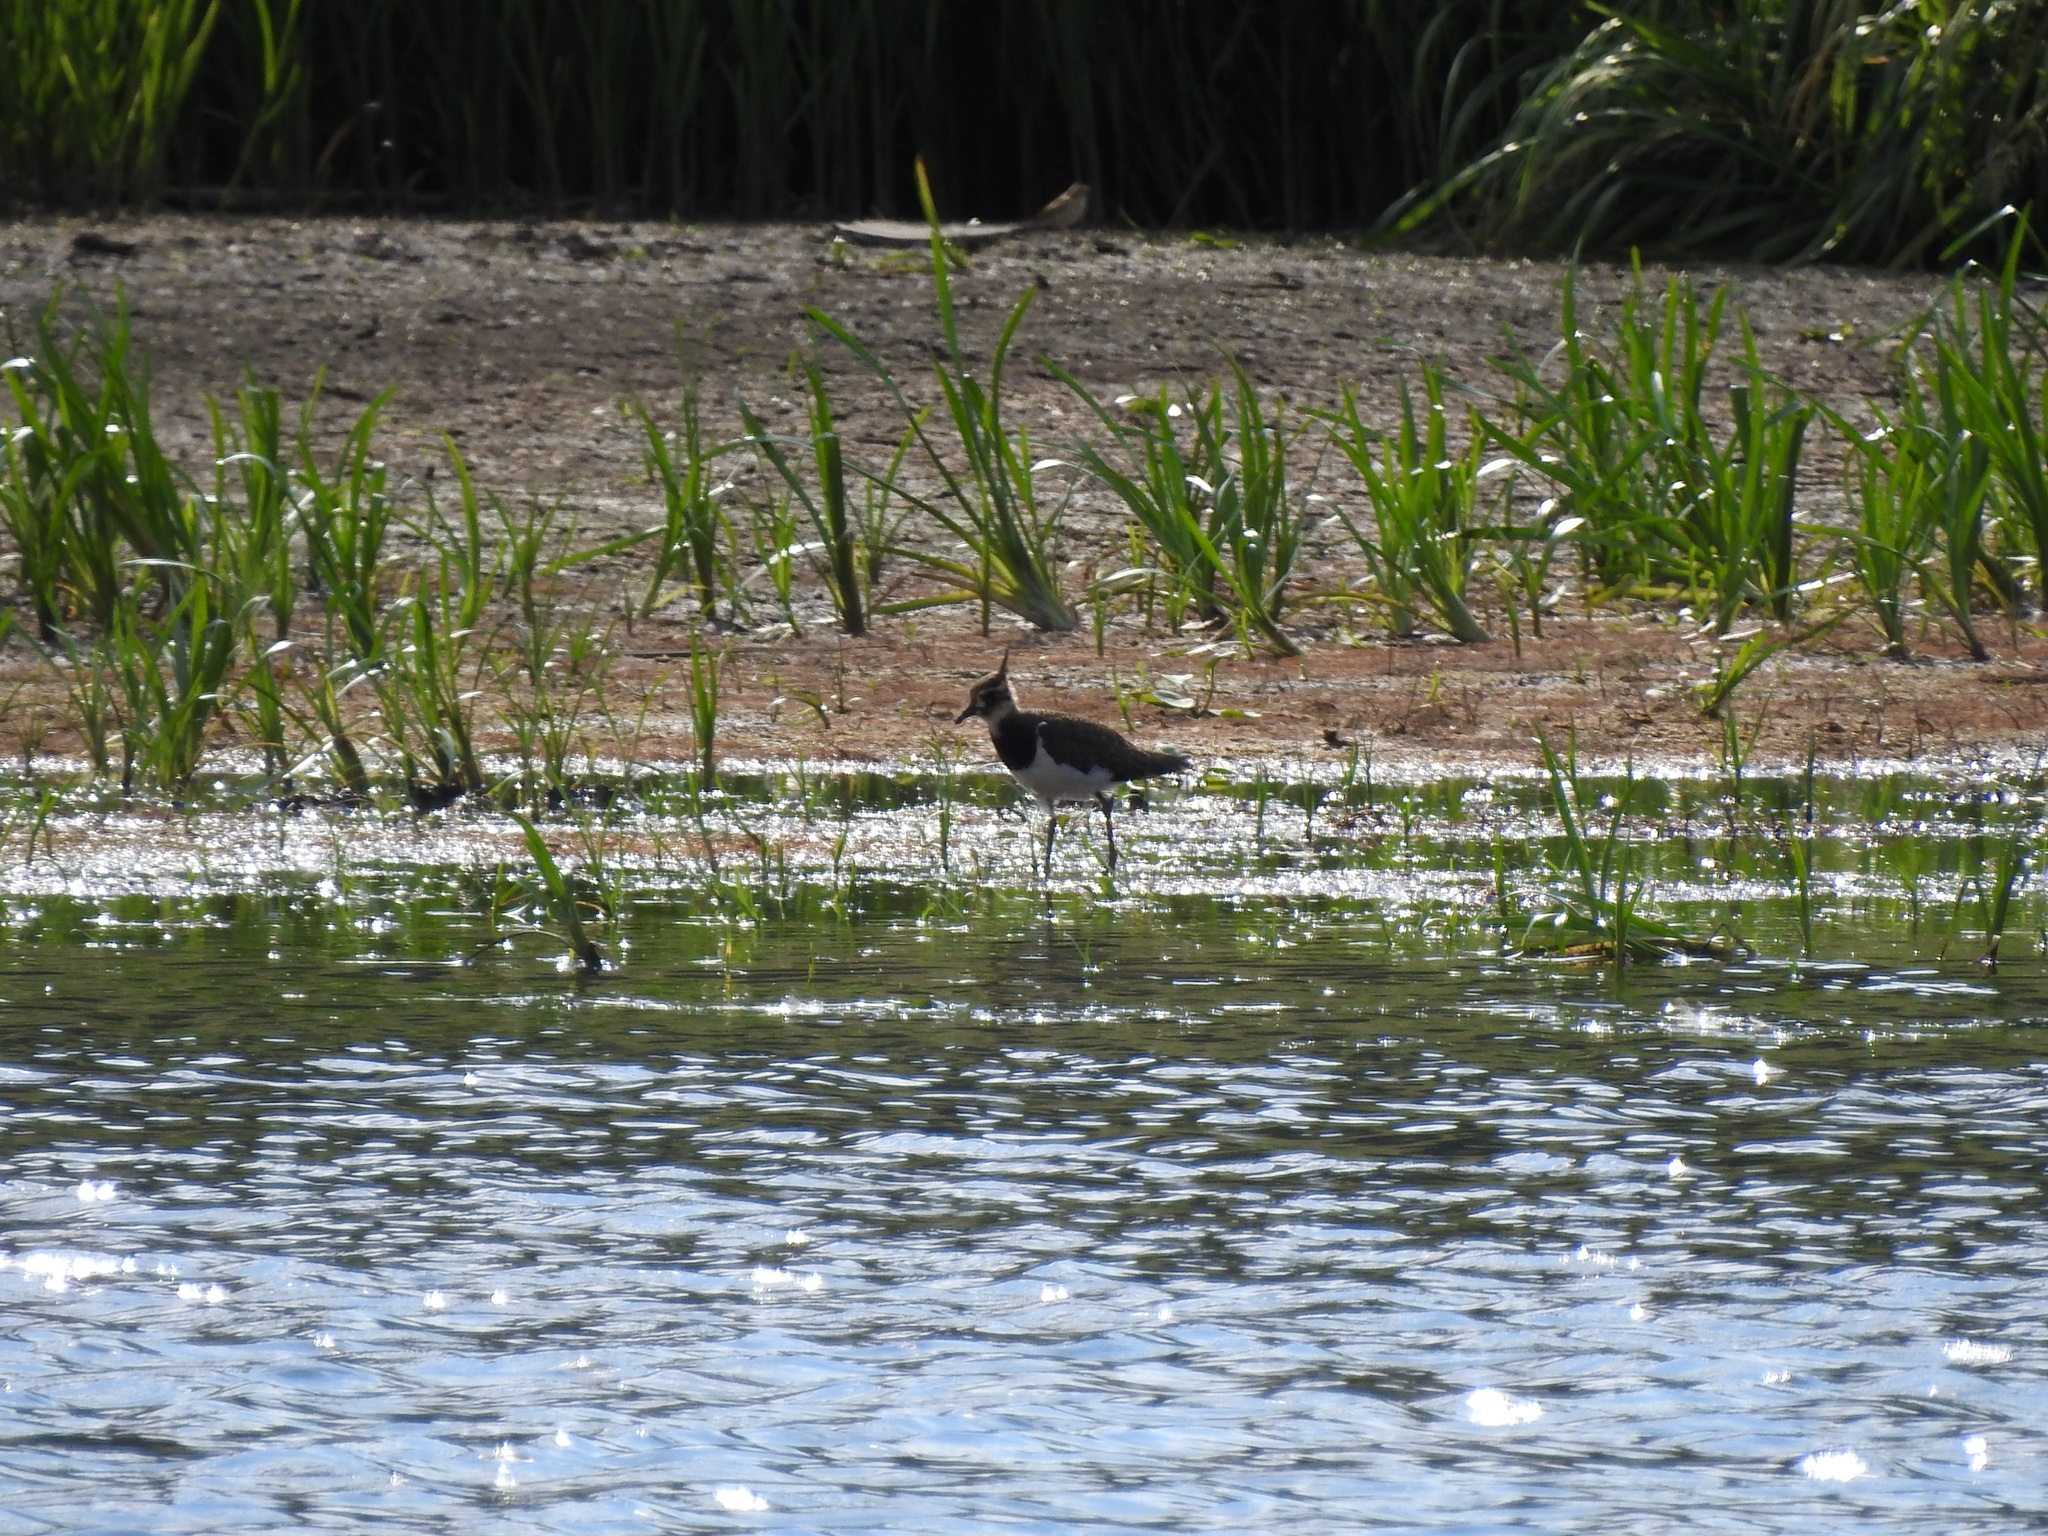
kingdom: Animalia
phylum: Chordata
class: Aves
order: Charadriiformes
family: Charadriidae
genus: Vanellus
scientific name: Vanellus vanellus
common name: Northern lapwing
